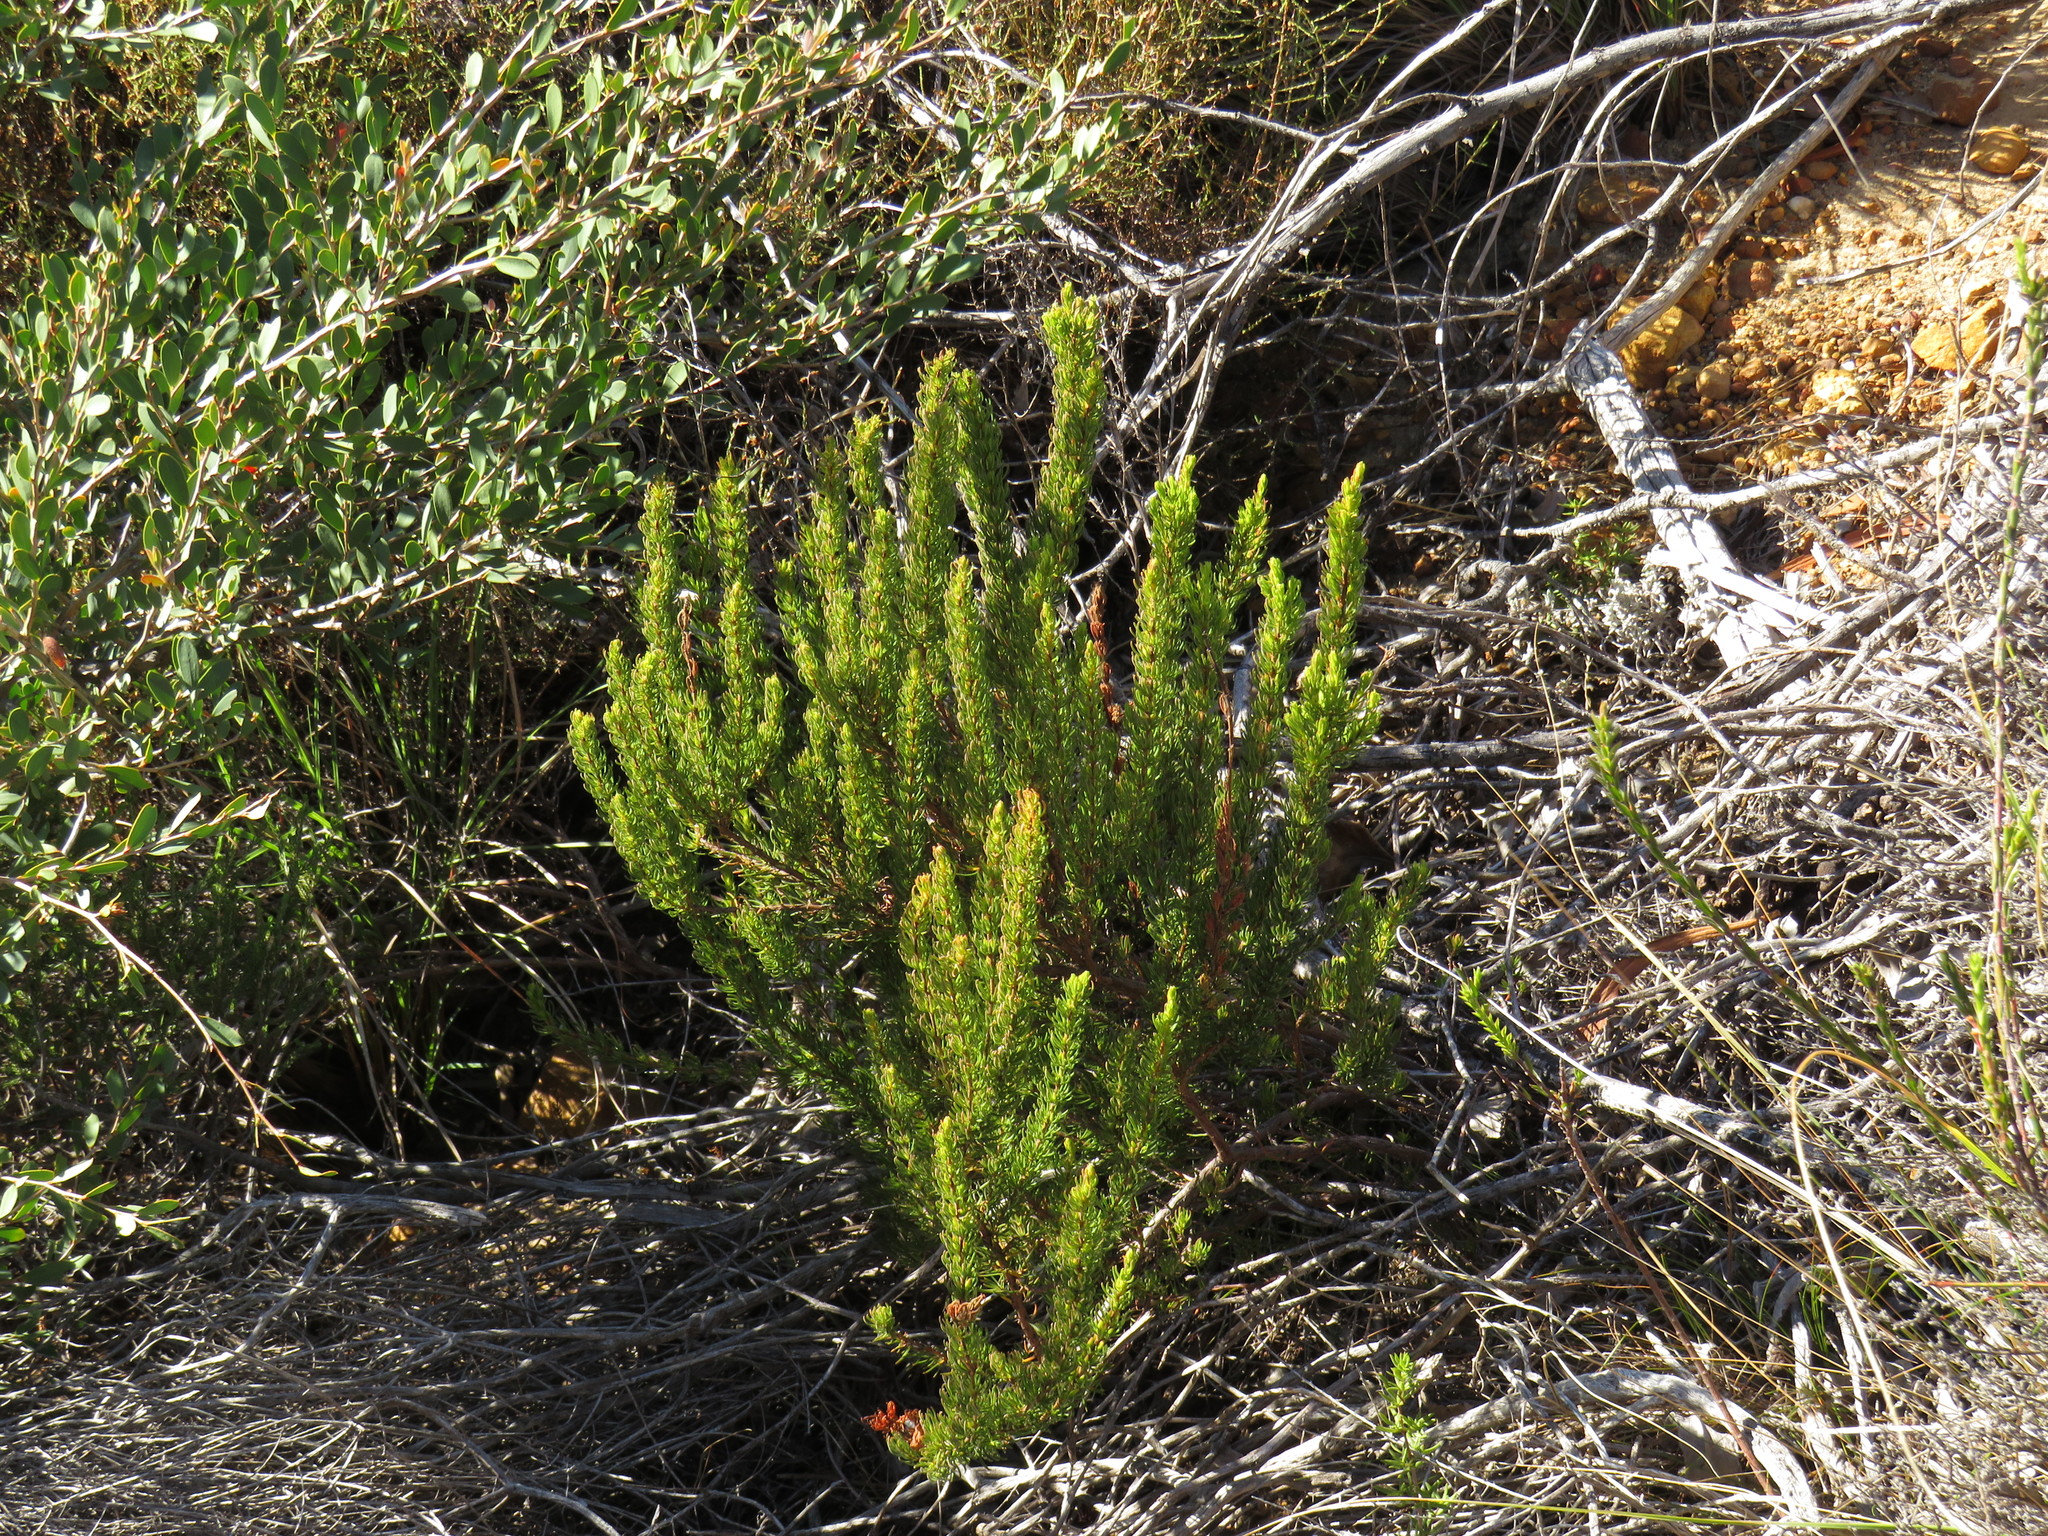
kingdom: Plantae
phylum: Tracheophyta
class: Magnoliopsida
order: Ericales
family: Ericaceae
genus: Erica
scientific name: Erica plukenetii
